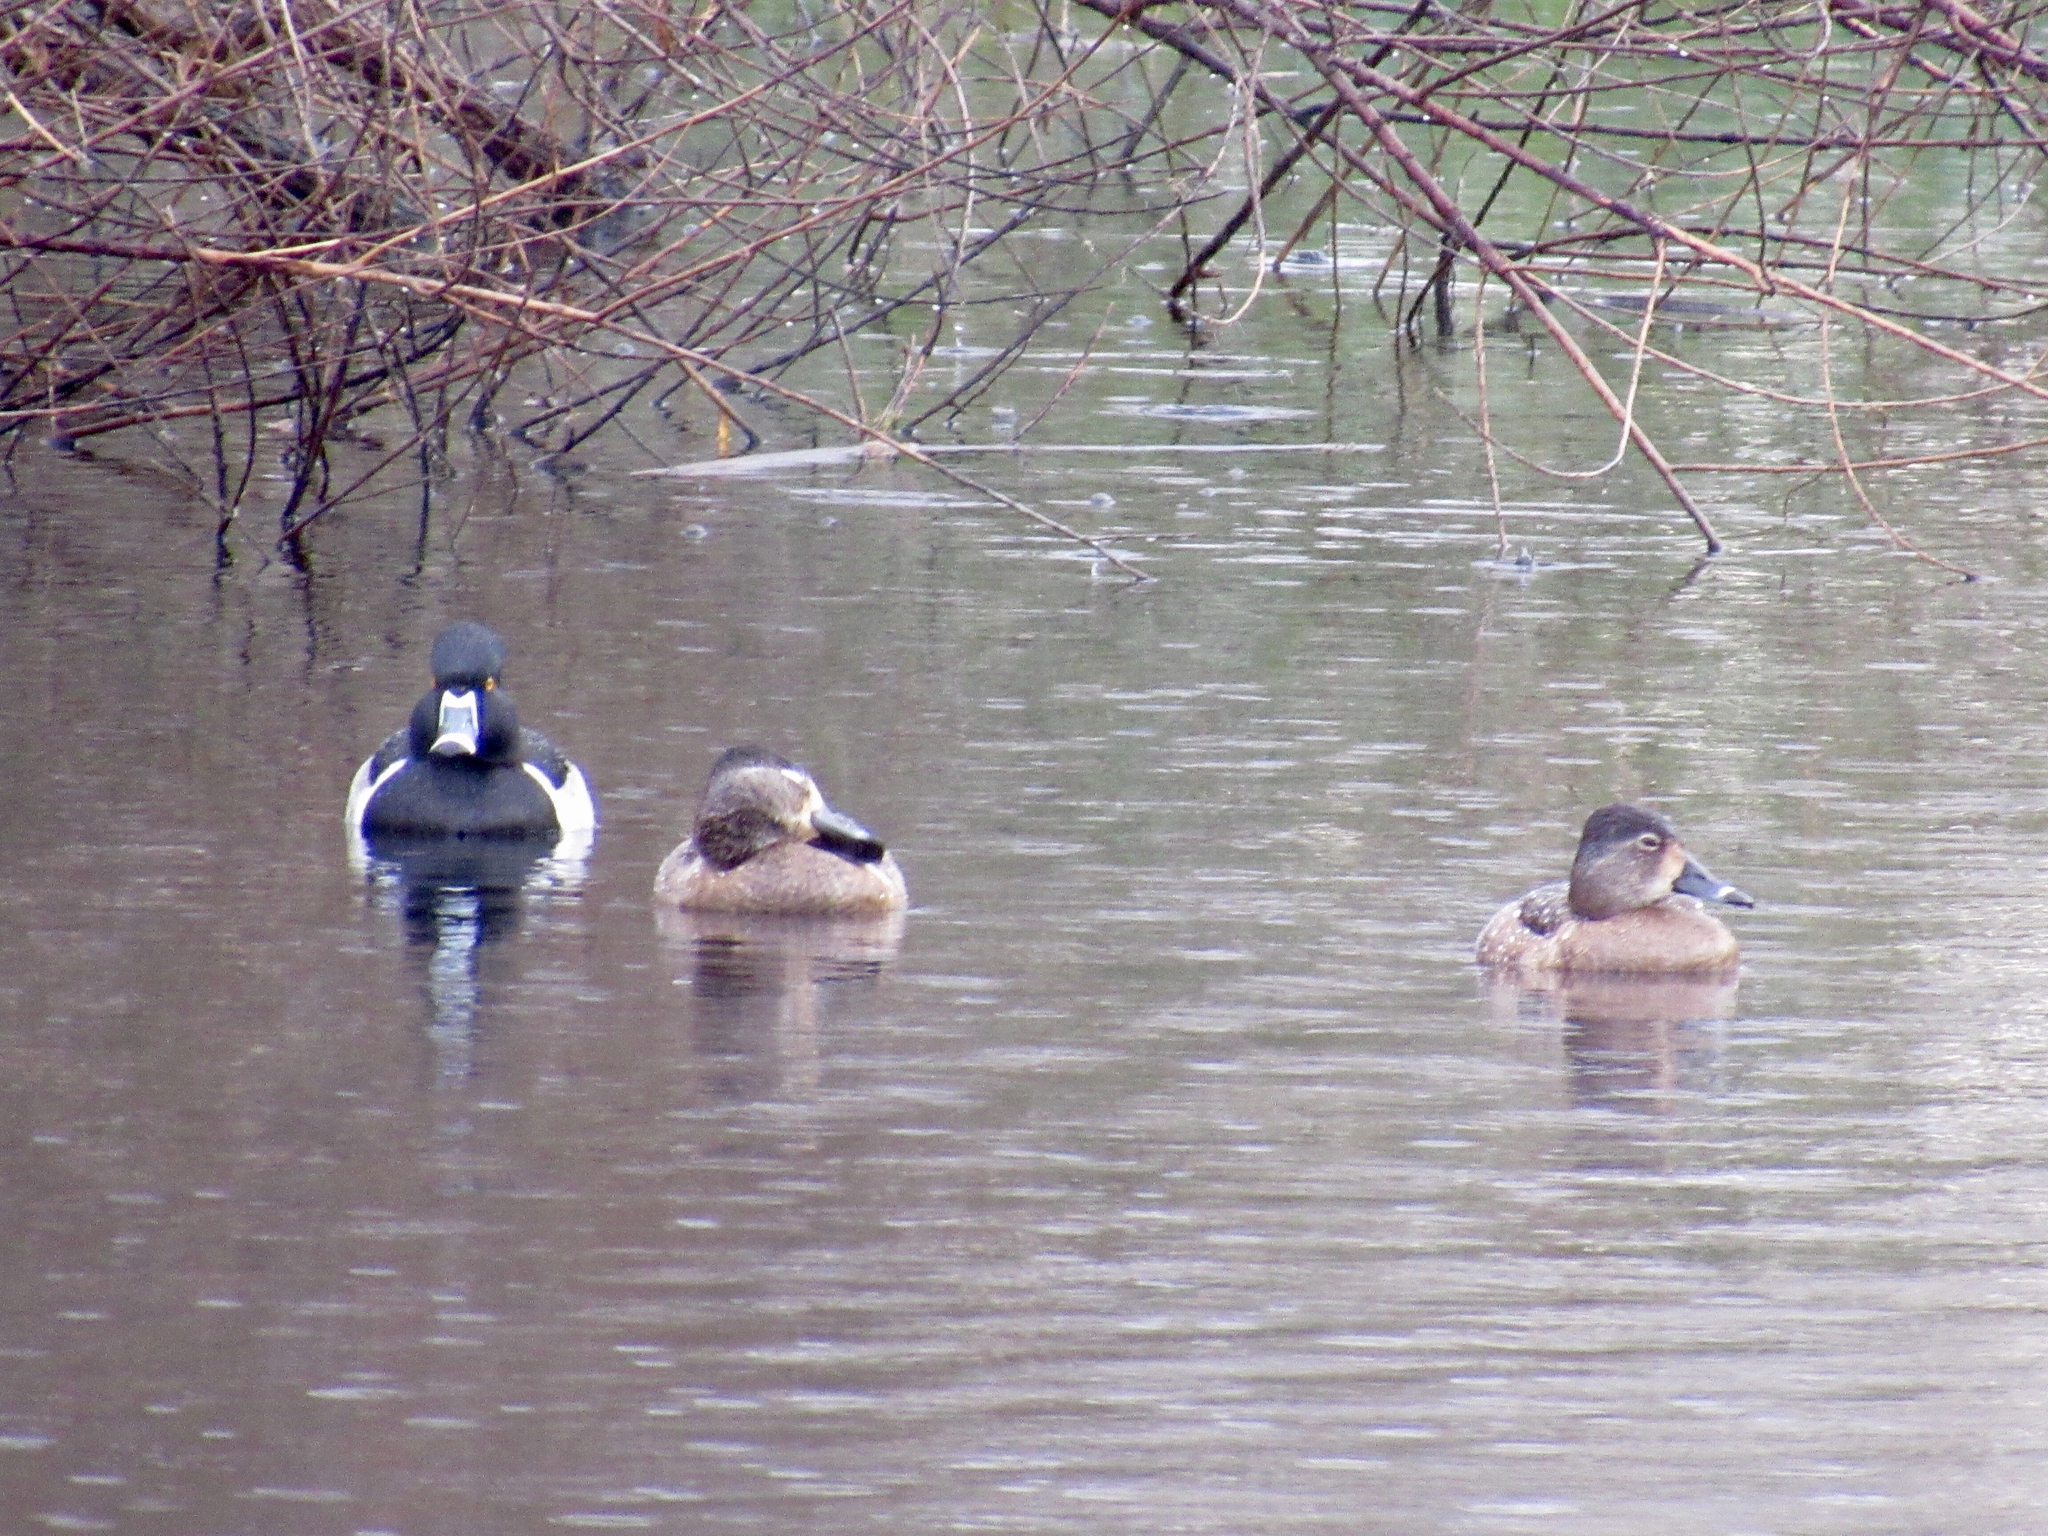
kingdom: Animalia
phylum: Chordata
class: Aves
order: Anseriformes
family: Anatidae
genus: Aythya
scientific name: Aythya collaris
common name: Ring-necked duck
